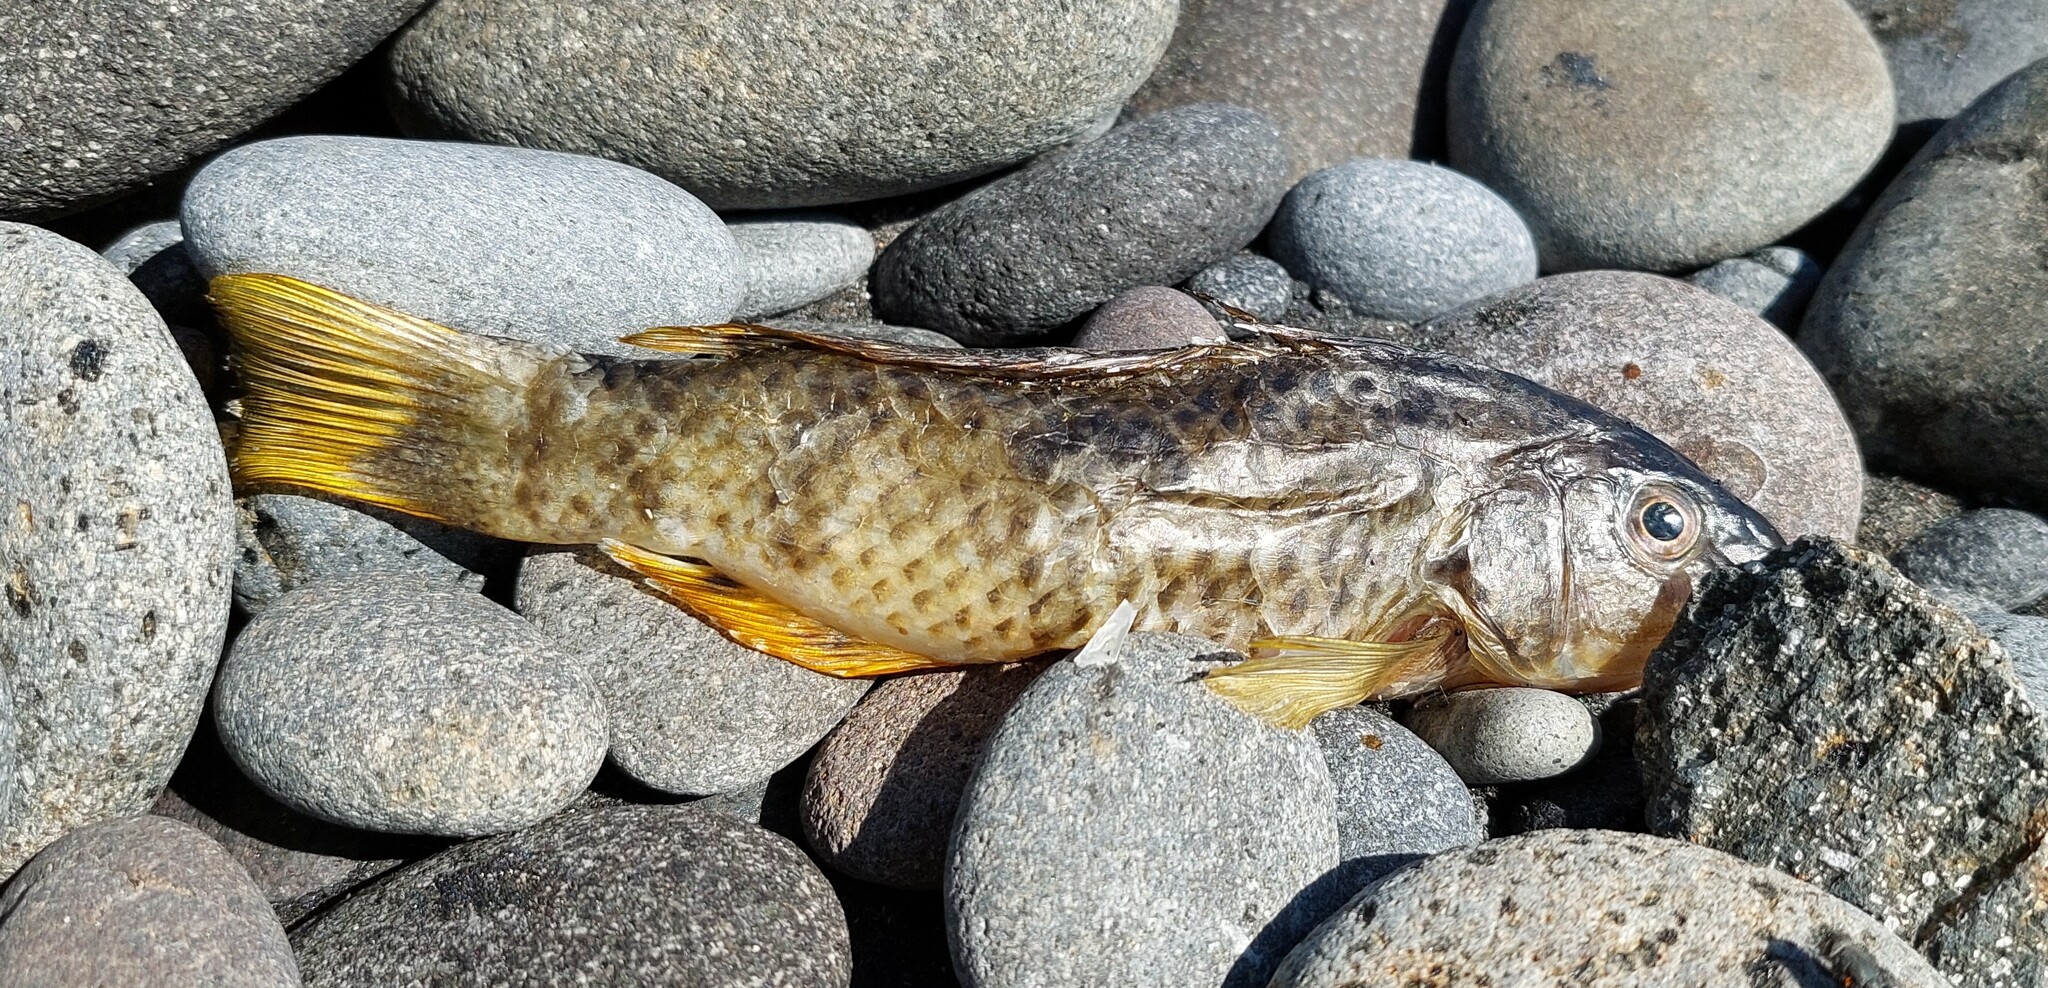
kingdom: Animalia
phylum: Chordata
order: Perciformes
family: Labridae
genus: Notolabrus
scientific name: Notolabrus celidotus
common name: Spotty
